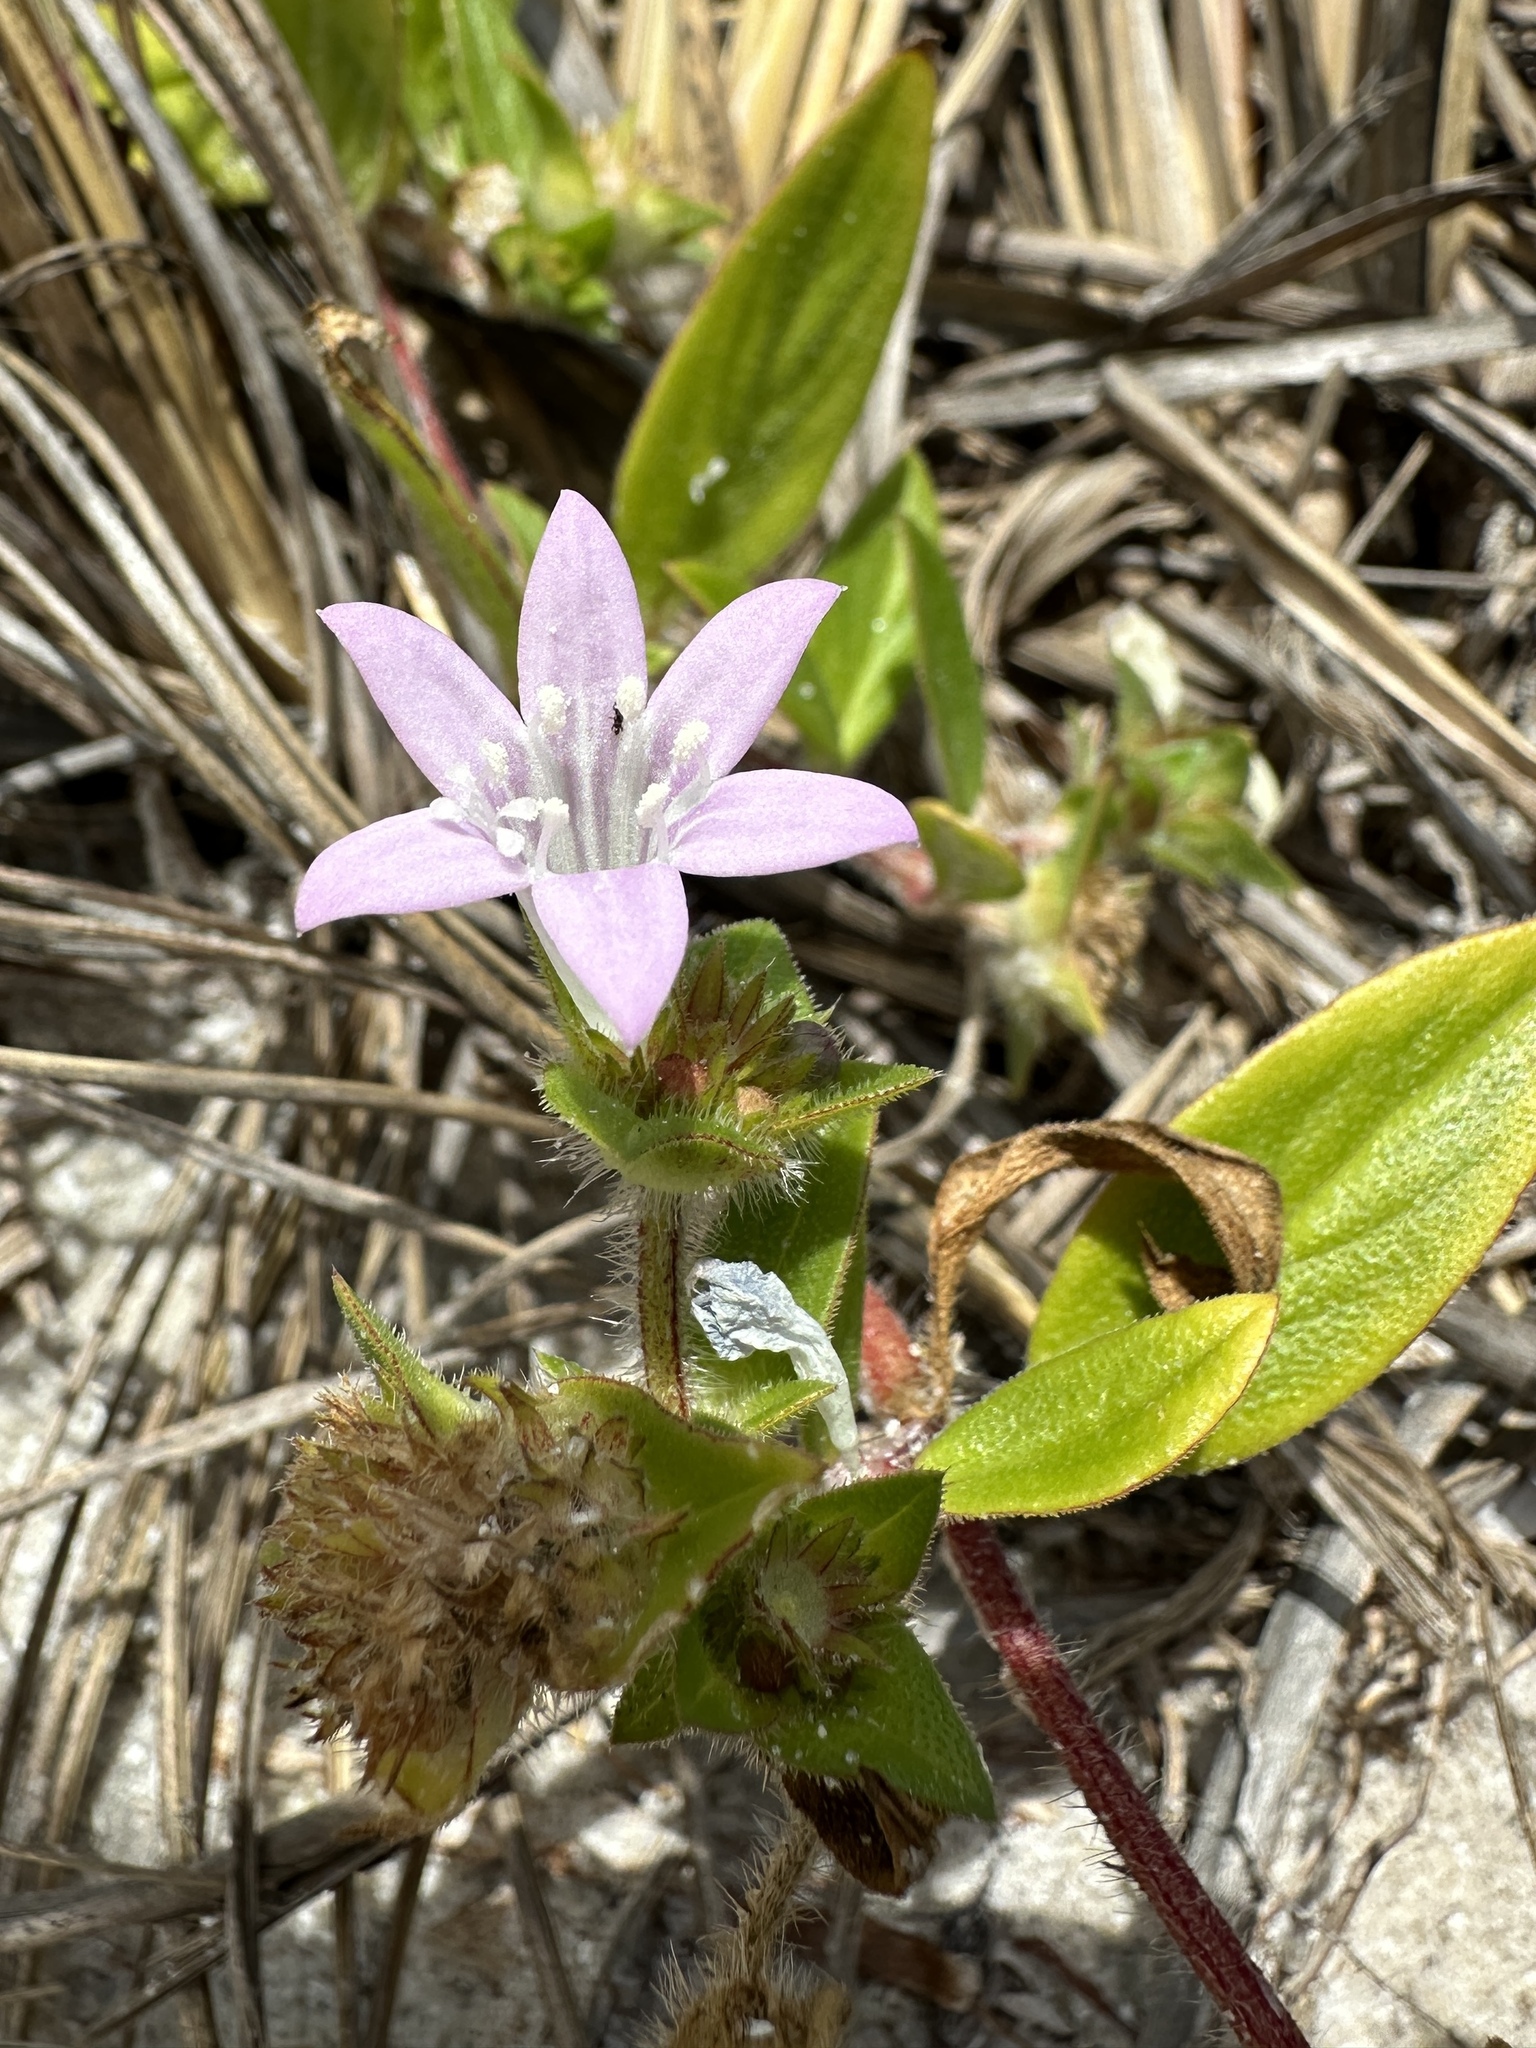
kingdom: Plantae
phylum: Tracheophyta
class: Magnoliopsida
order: Gentianales
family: Rubiaceae
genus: Richardia
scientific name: Richardia grandiflora
